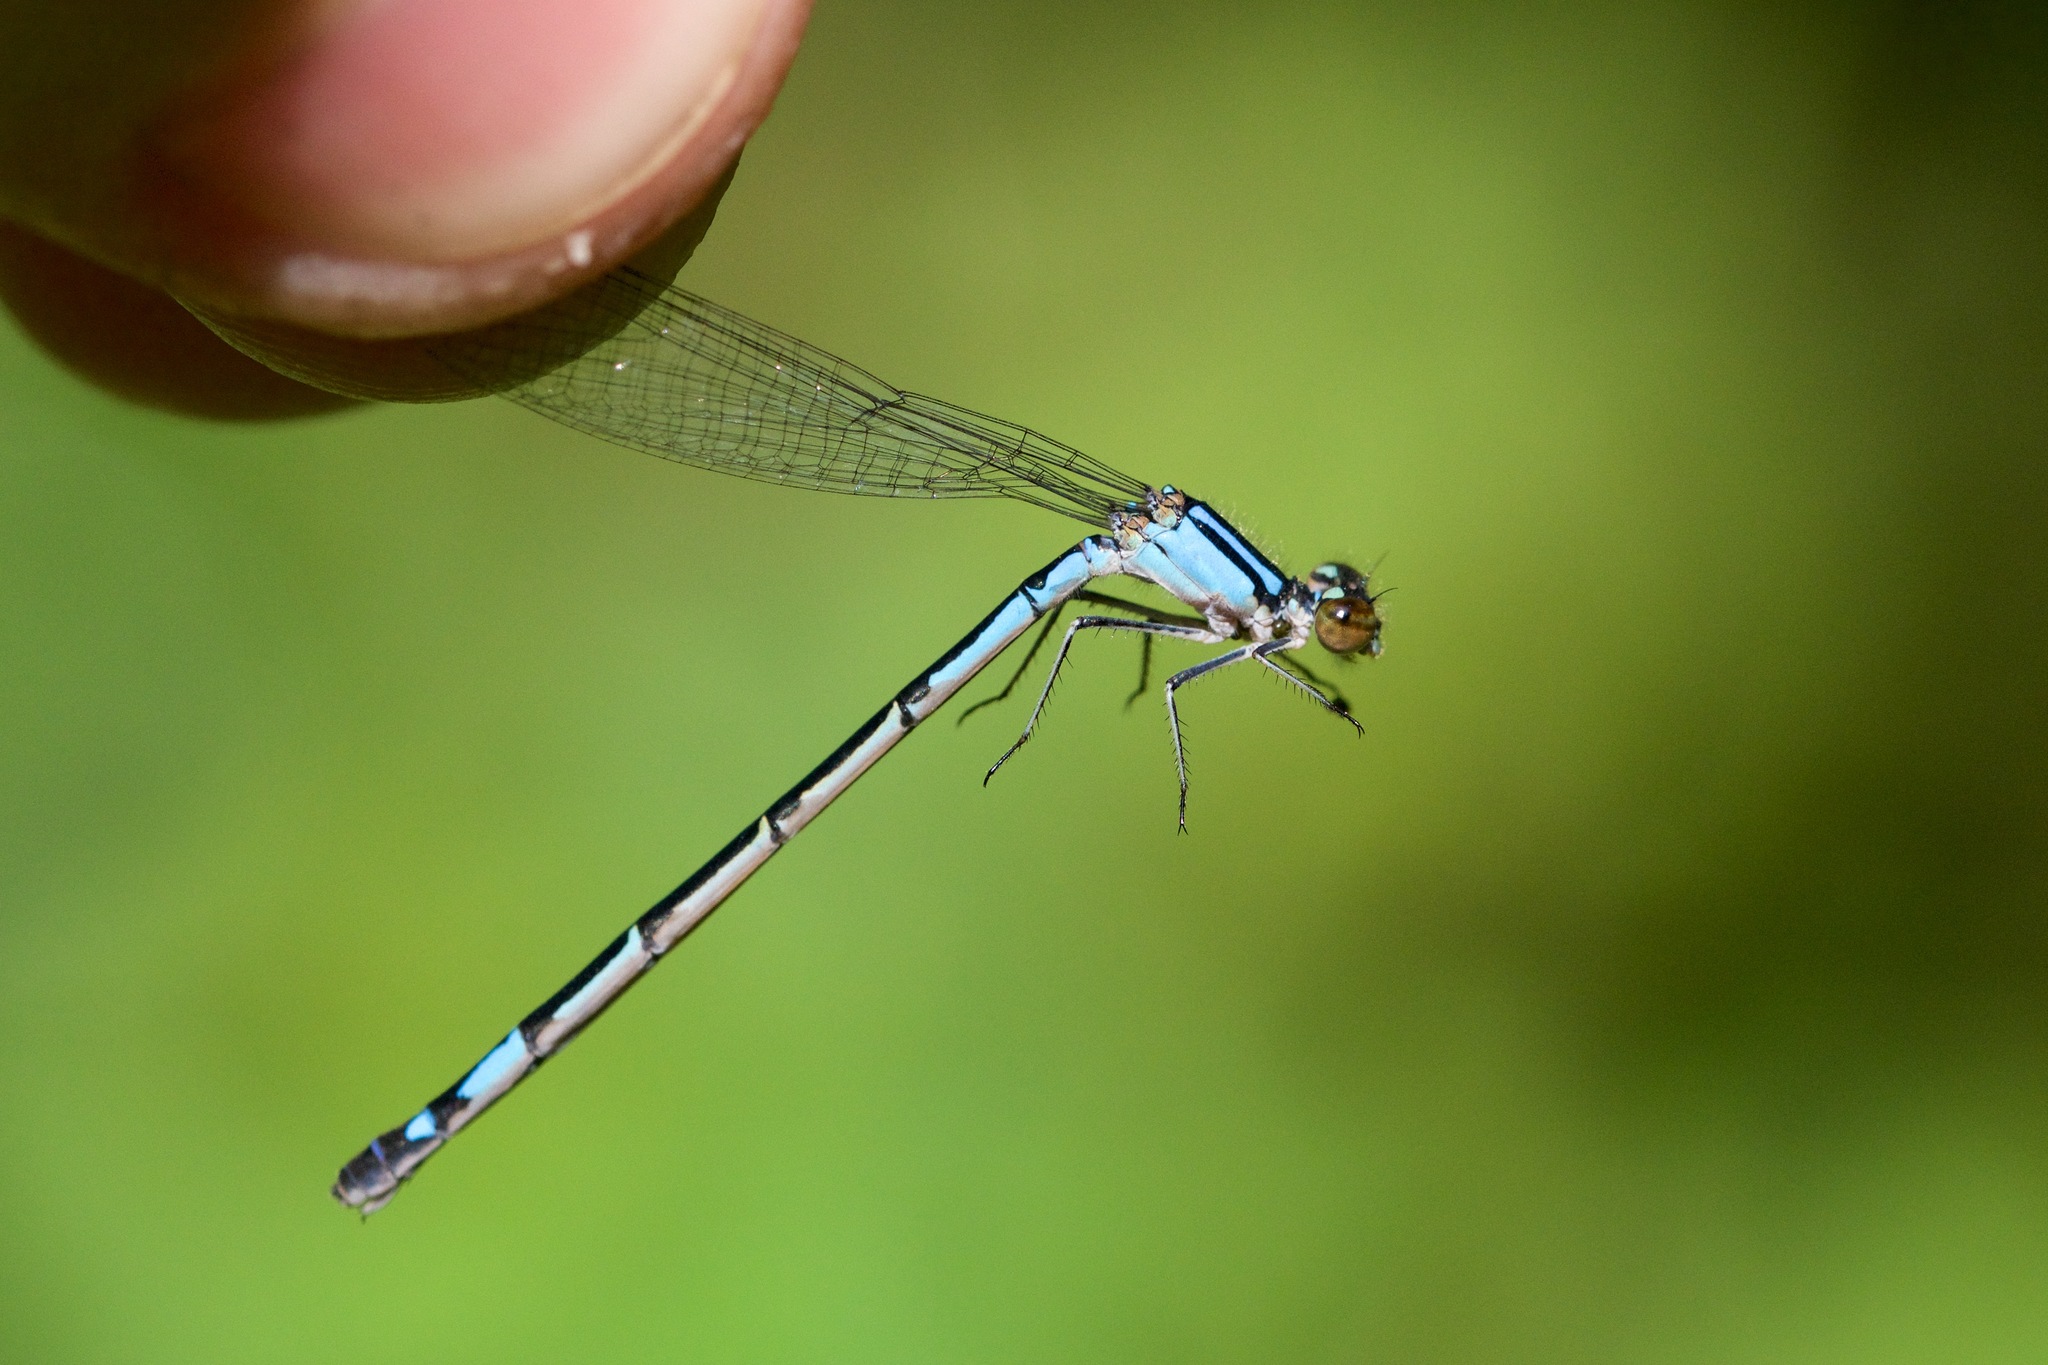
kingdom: Animalia
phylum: Arthropoda
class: Insecta
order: Odonata
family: Coenagrionidae
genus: Enallagma
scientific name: Enallagma aspersum
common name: Azure bluet
